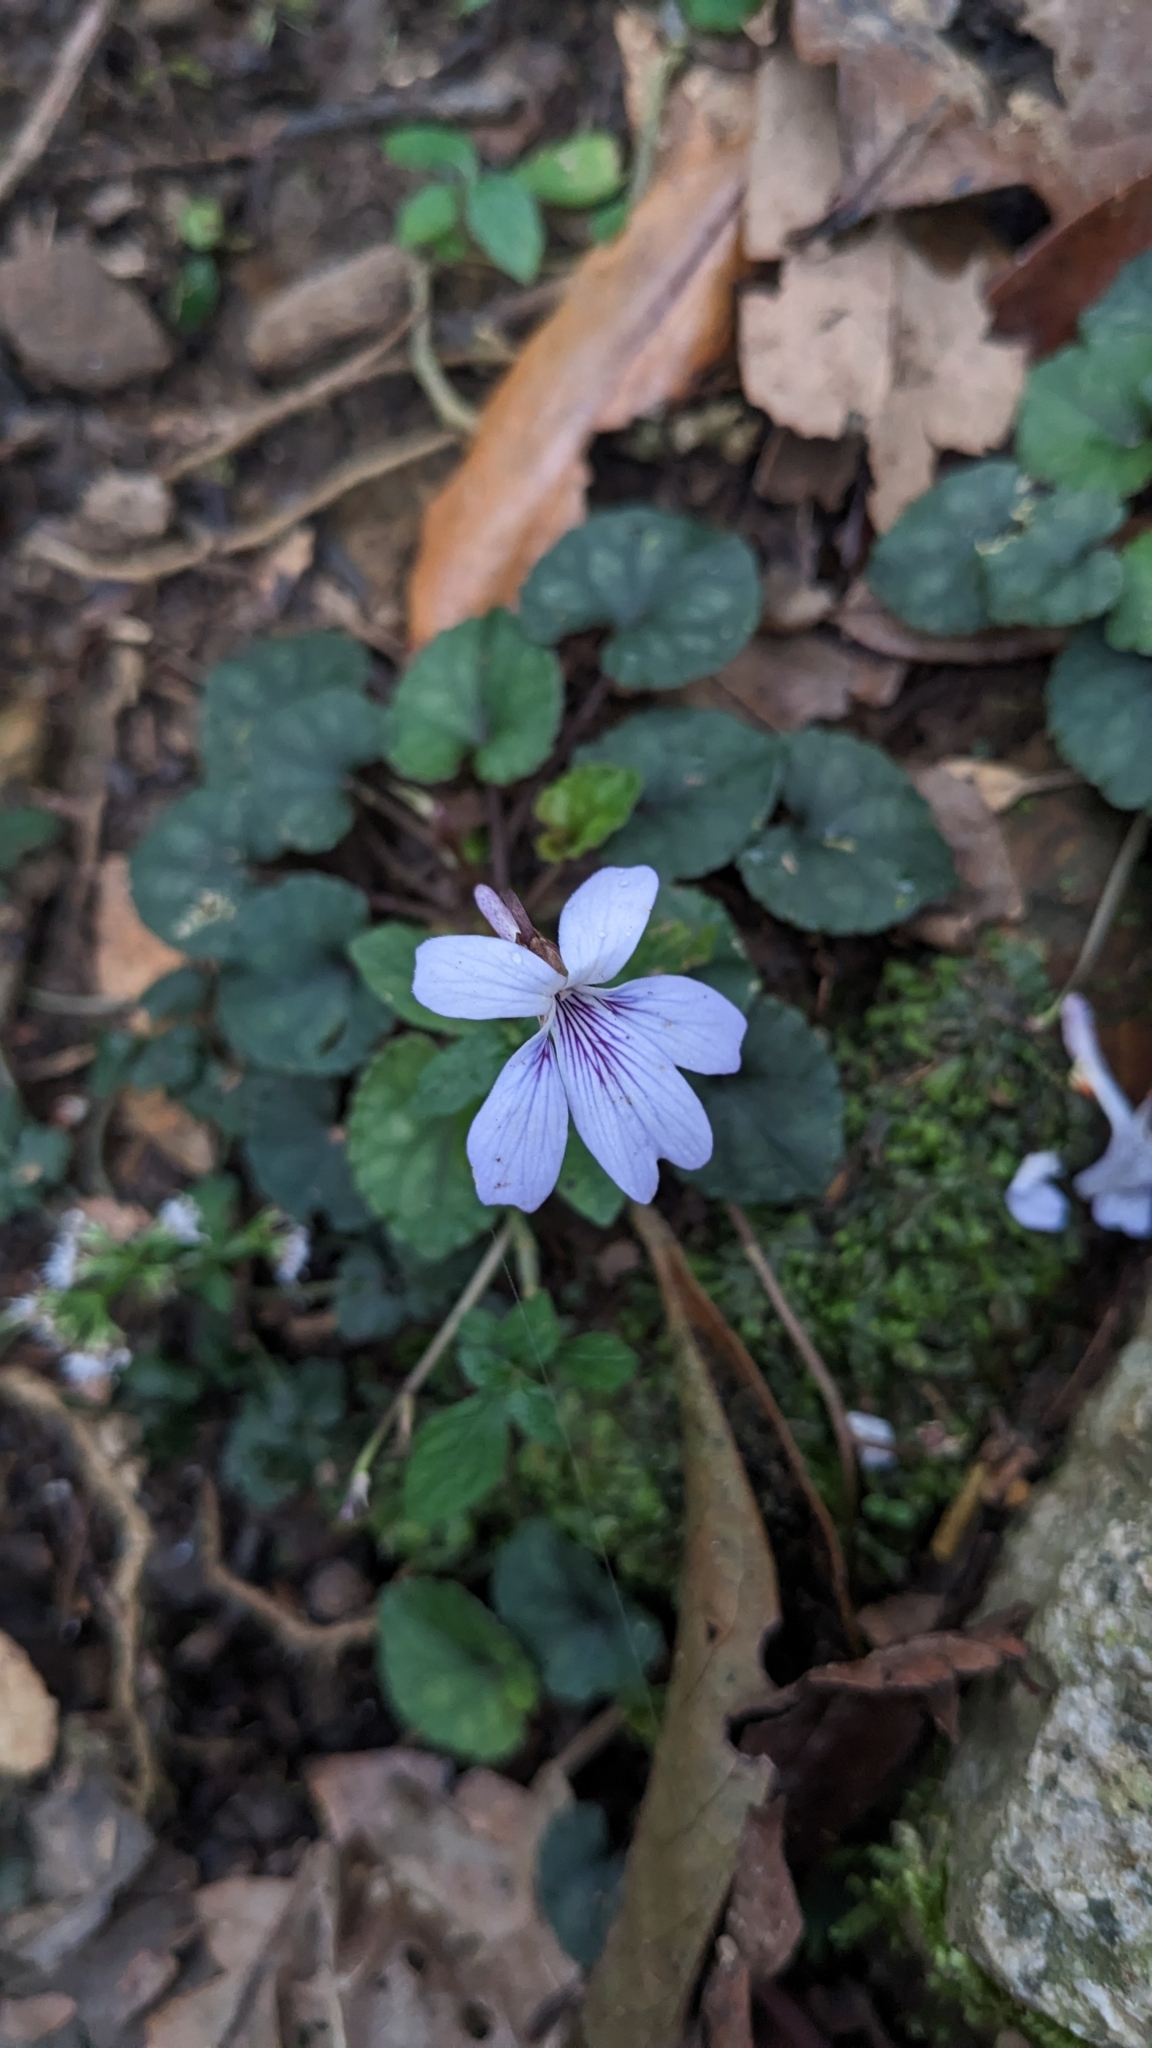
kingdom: Plantae
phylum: Tracheophyta
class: Magnoliopsida
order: Malpighiales
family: Violaceae
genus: Viola
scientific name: Viola formosana
